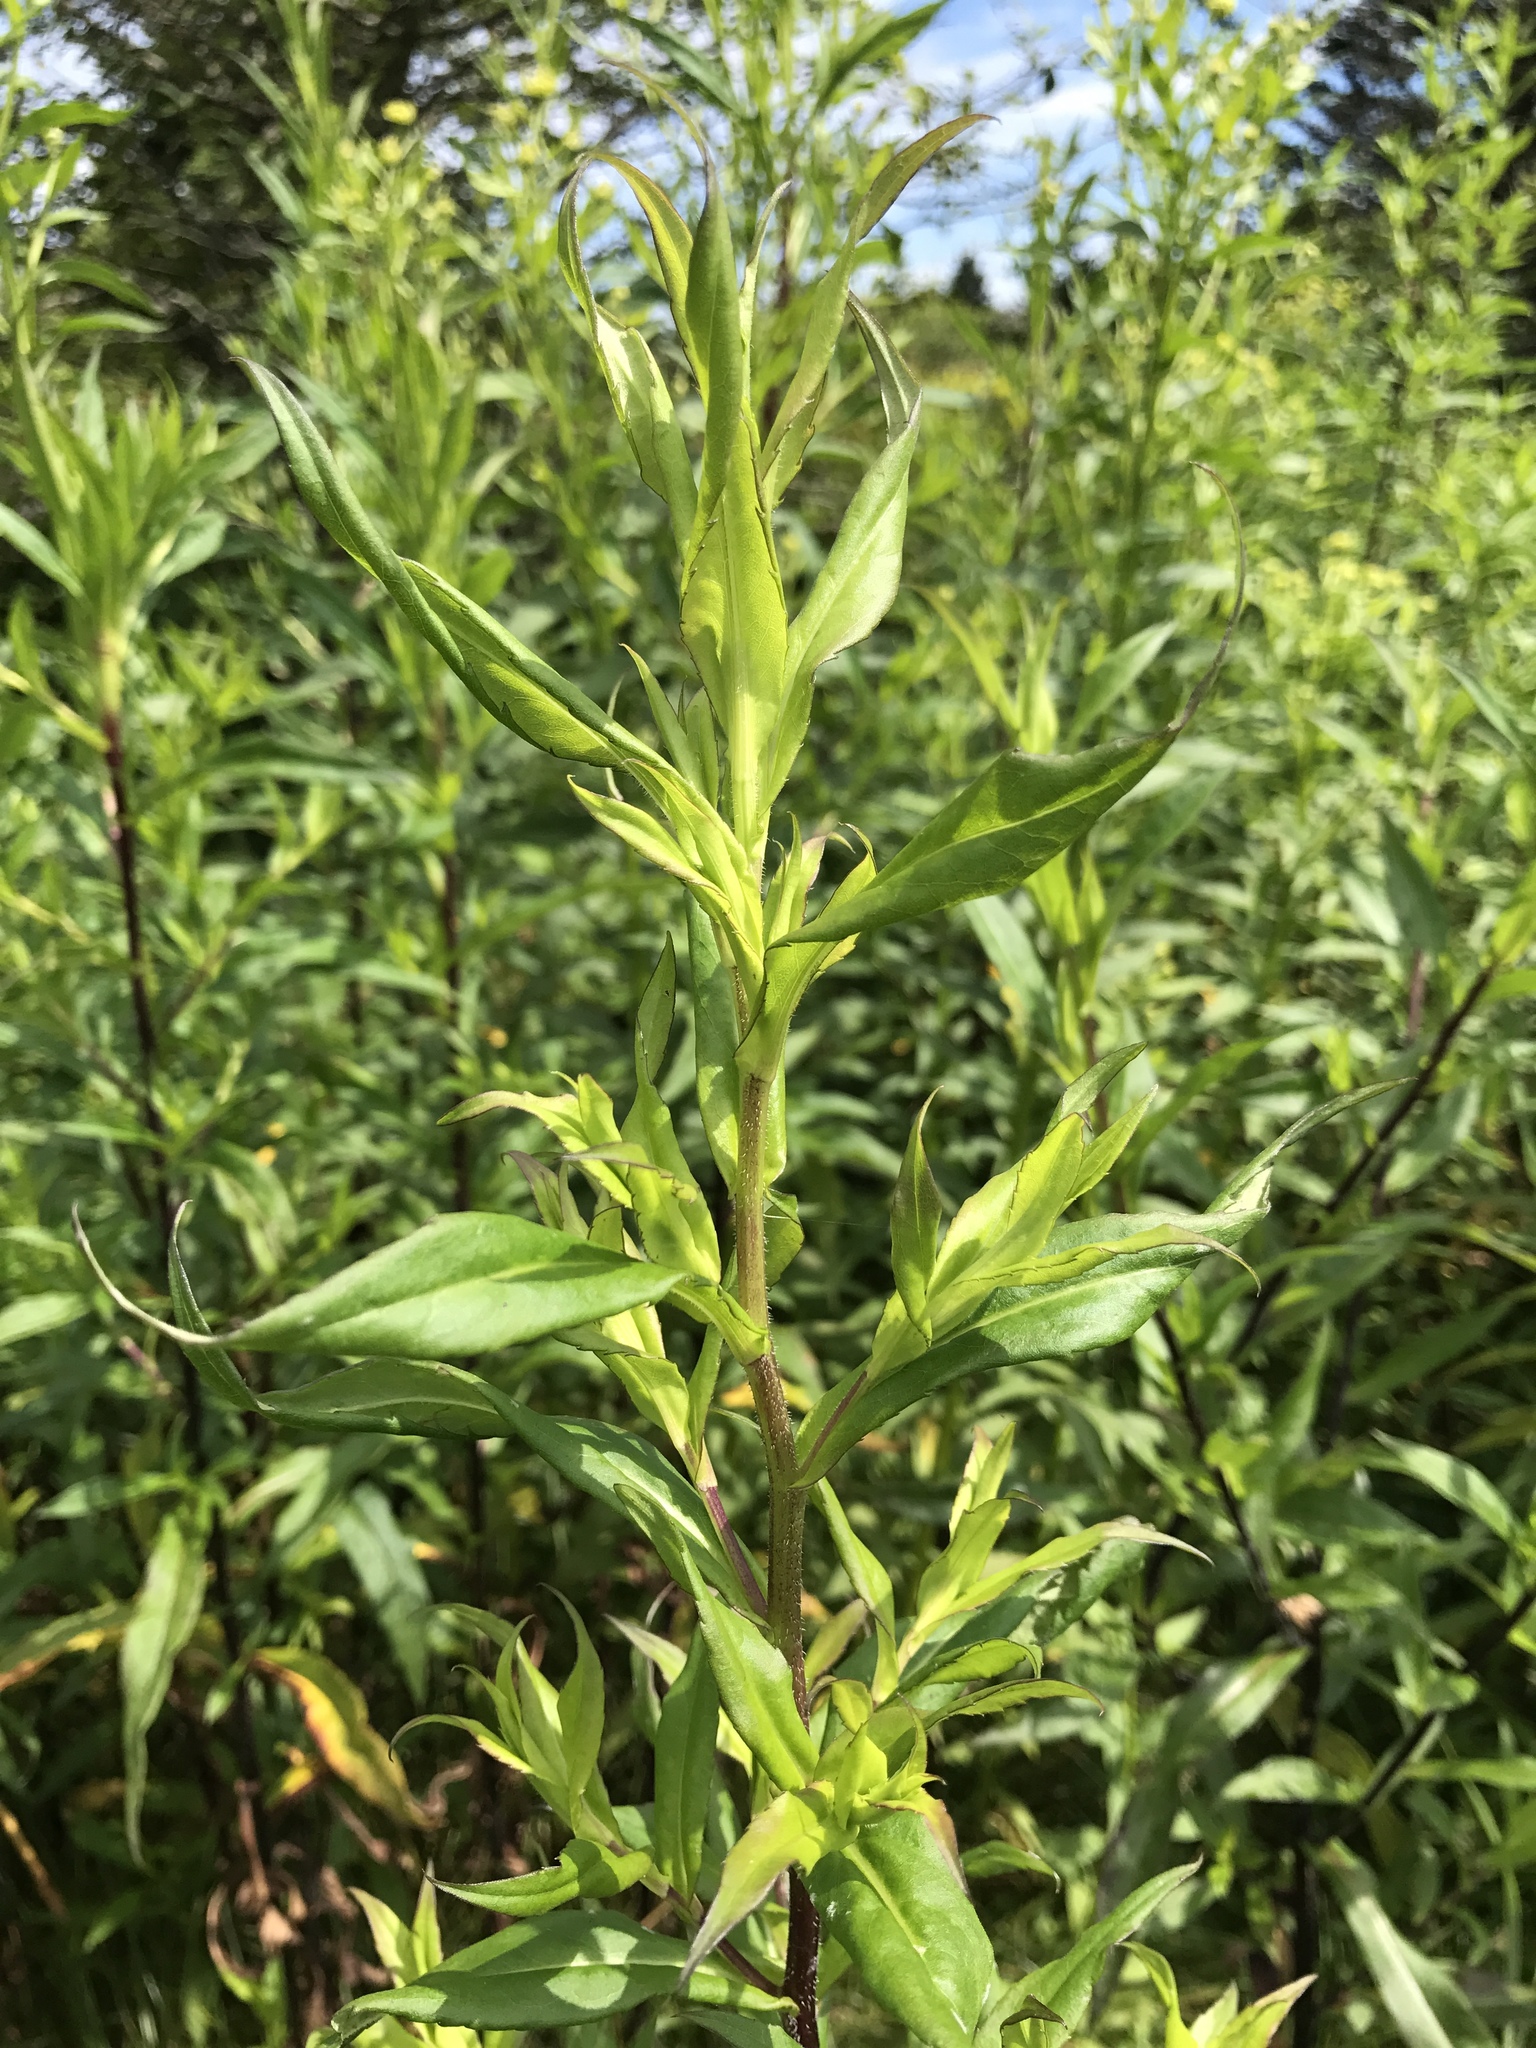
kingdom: Plantae
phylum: Tracheophyta
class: Magnoliopsida
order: Asterales
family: Asteraceae
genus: Symphyotrichum
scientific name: Symphyotrichum puniceum
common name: Bog aster
